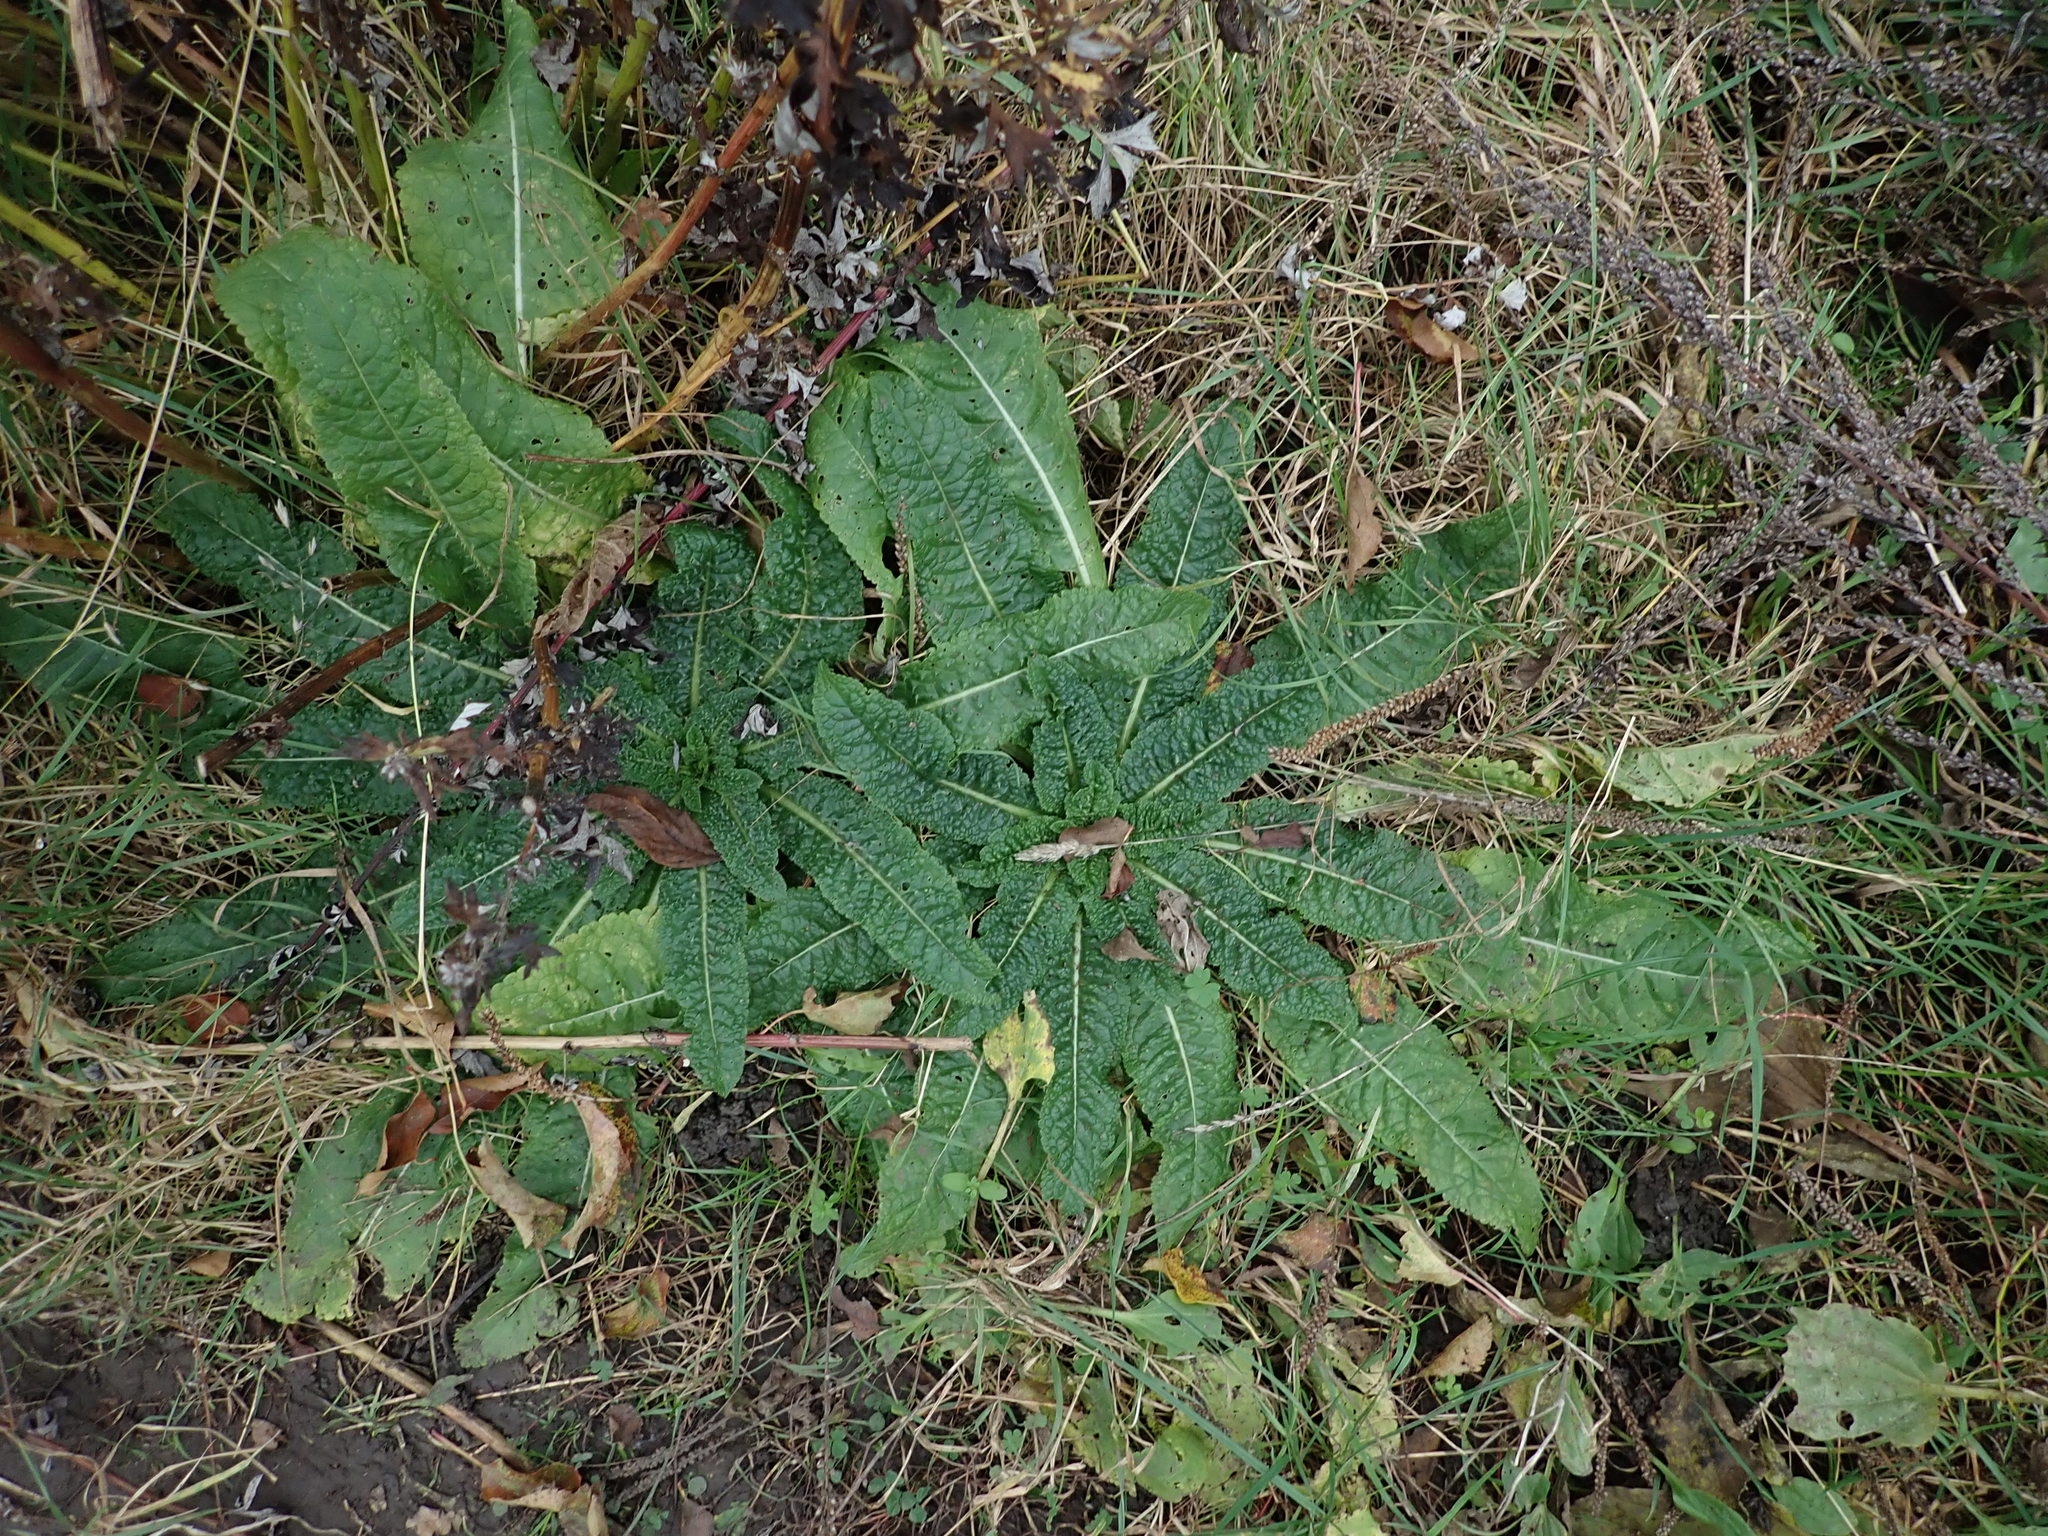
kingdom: Plantae
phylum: Tracheophyta
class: Magnoliopsida
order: Dipsacales
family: Caprifoliaceae
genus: Dipsacus
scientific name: Dipsacus fullonum
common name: Teasel
